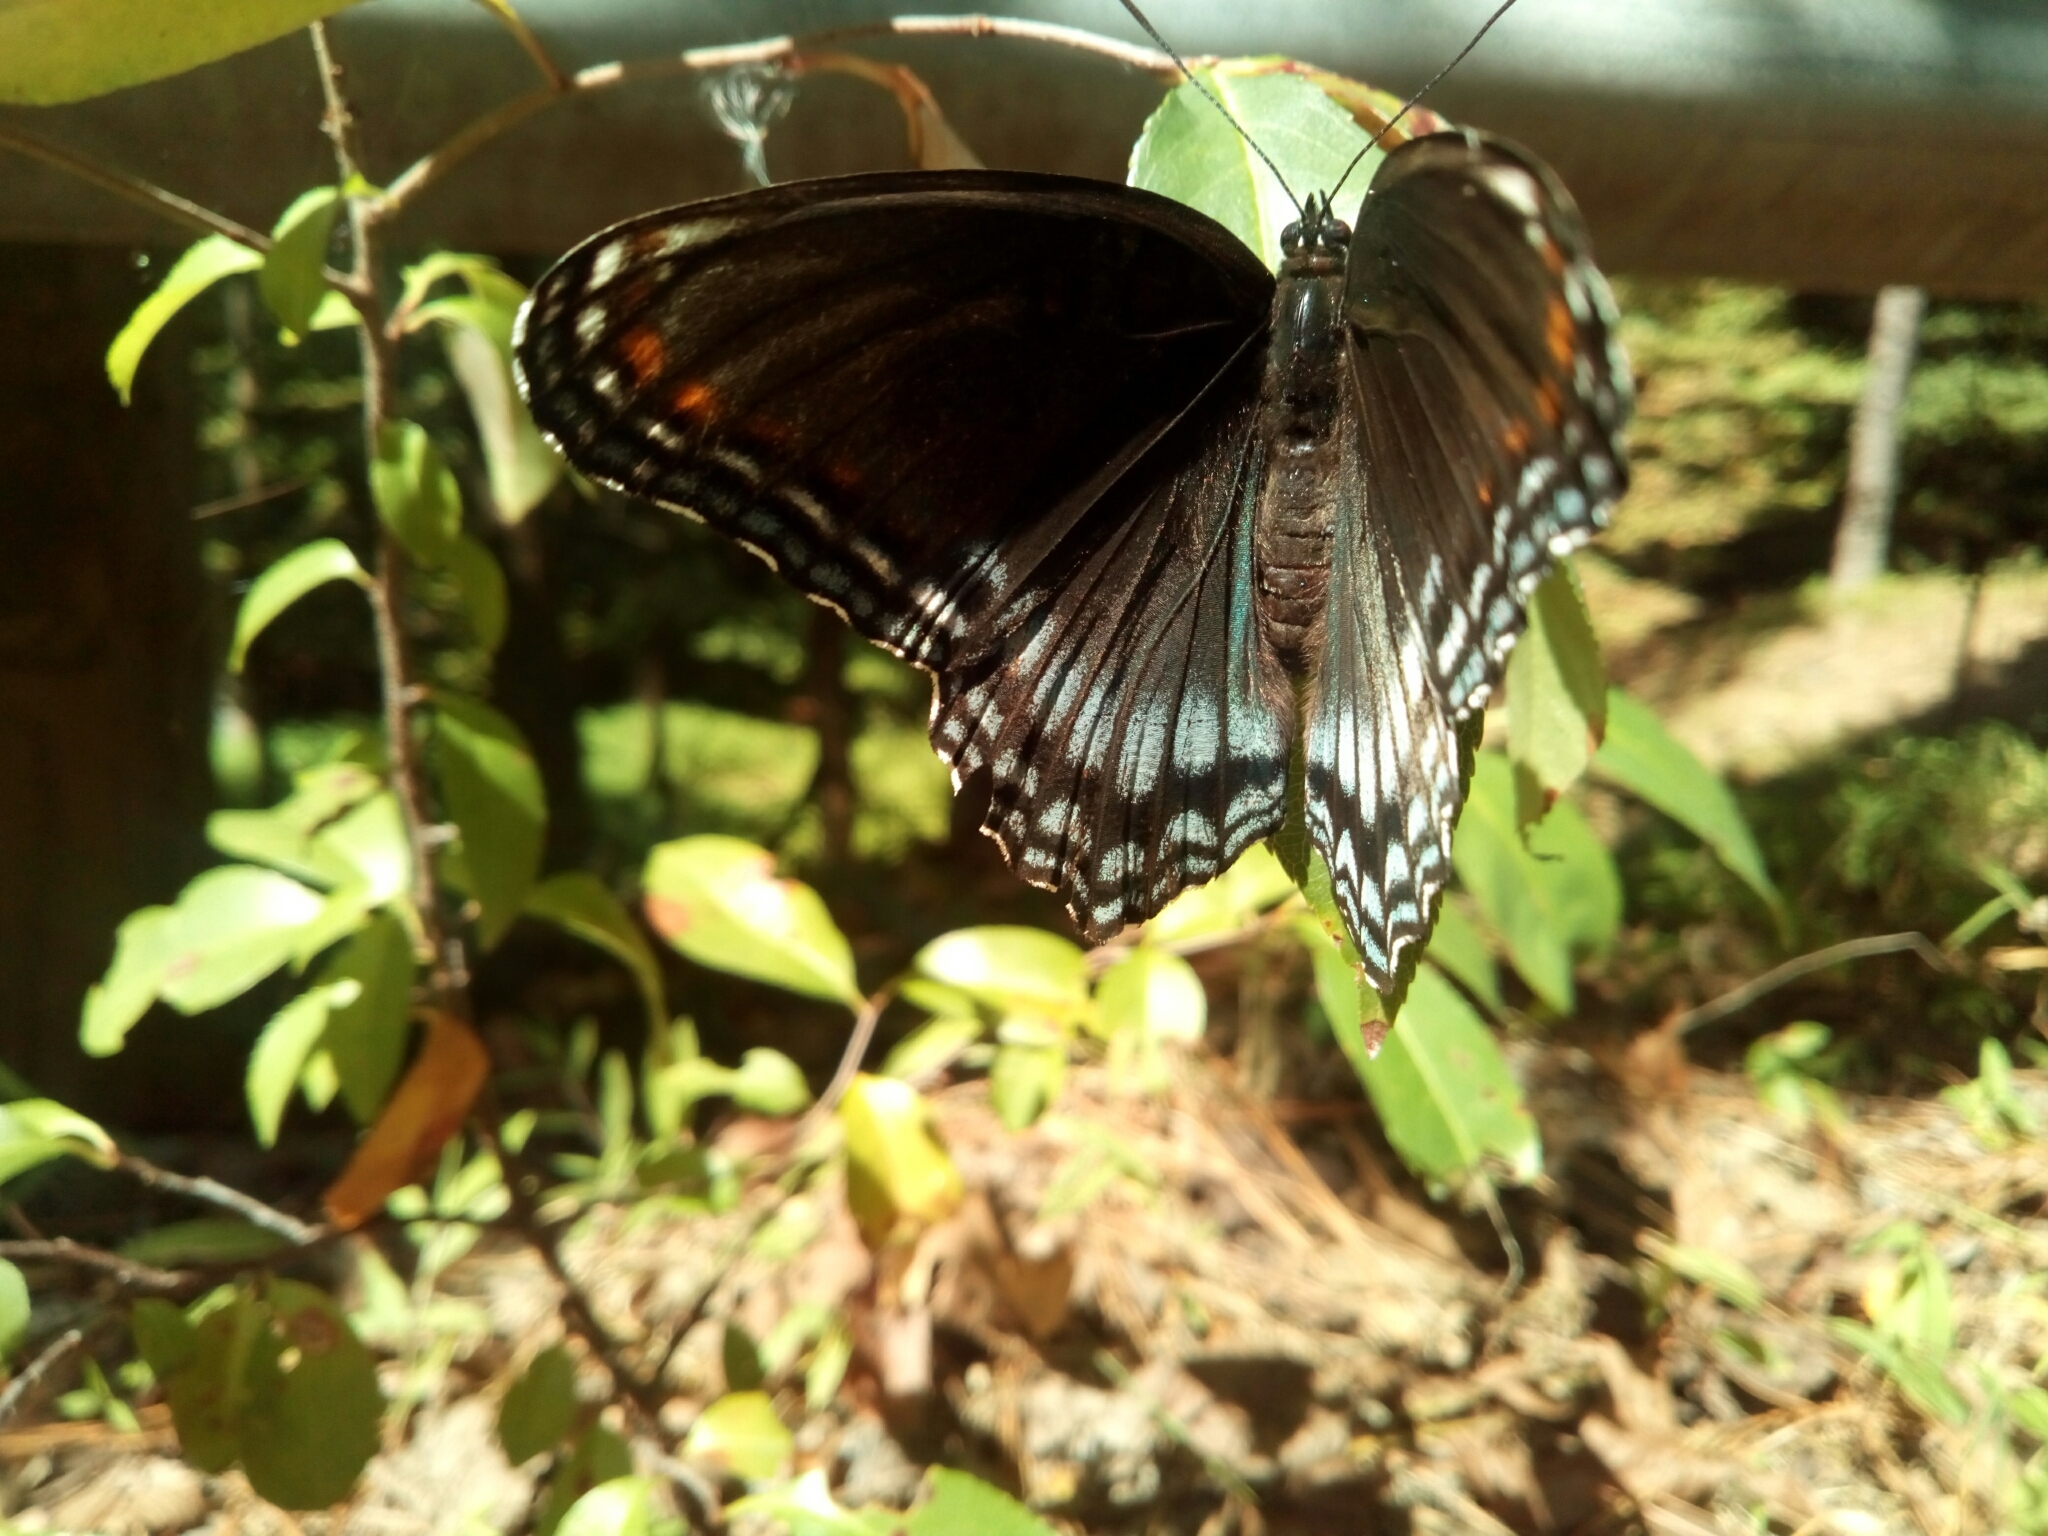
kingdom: Animalia
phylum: Arthropoda
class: Insecta
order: Lepidoptera
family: Nymphalidae
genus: Limenitis
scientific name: Limenitis astyanax
